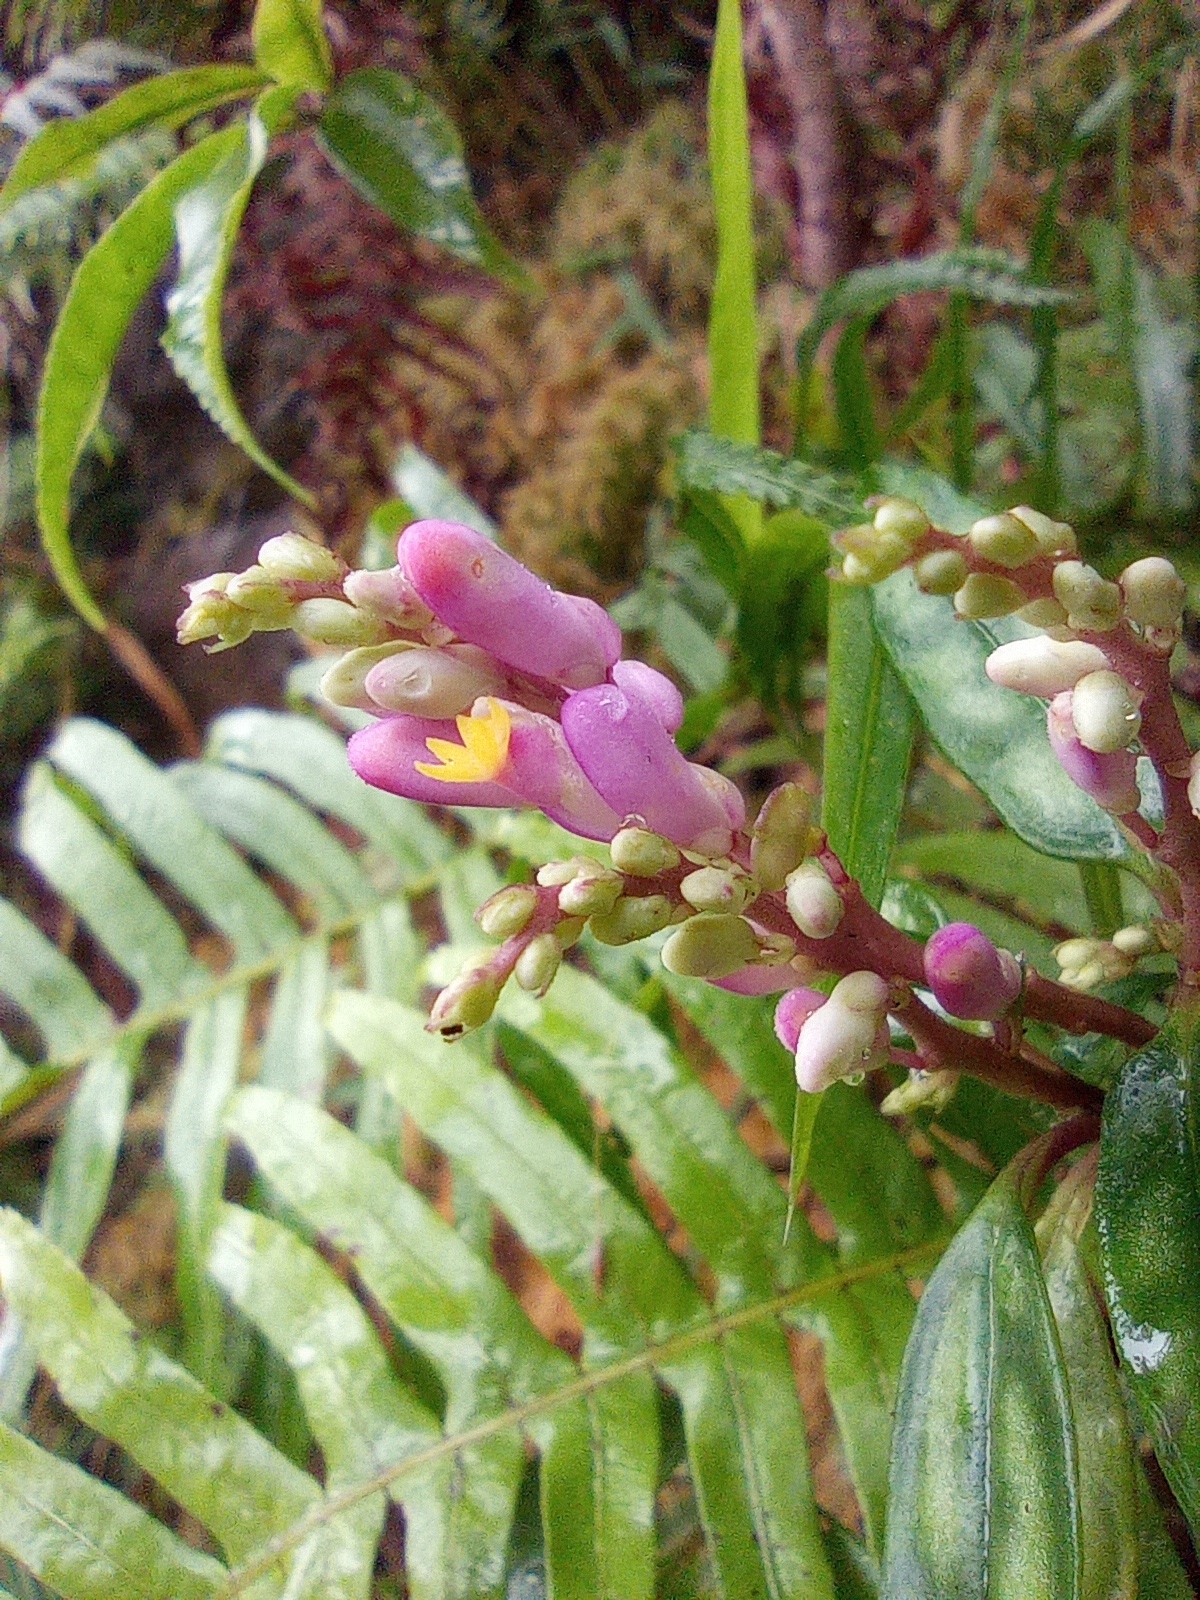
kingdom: Plantae
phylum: Tracheophyta
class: Magnoliopsida
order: Fabales
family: Polygalaceae
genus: Polygala
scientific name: Polygala arcuata
